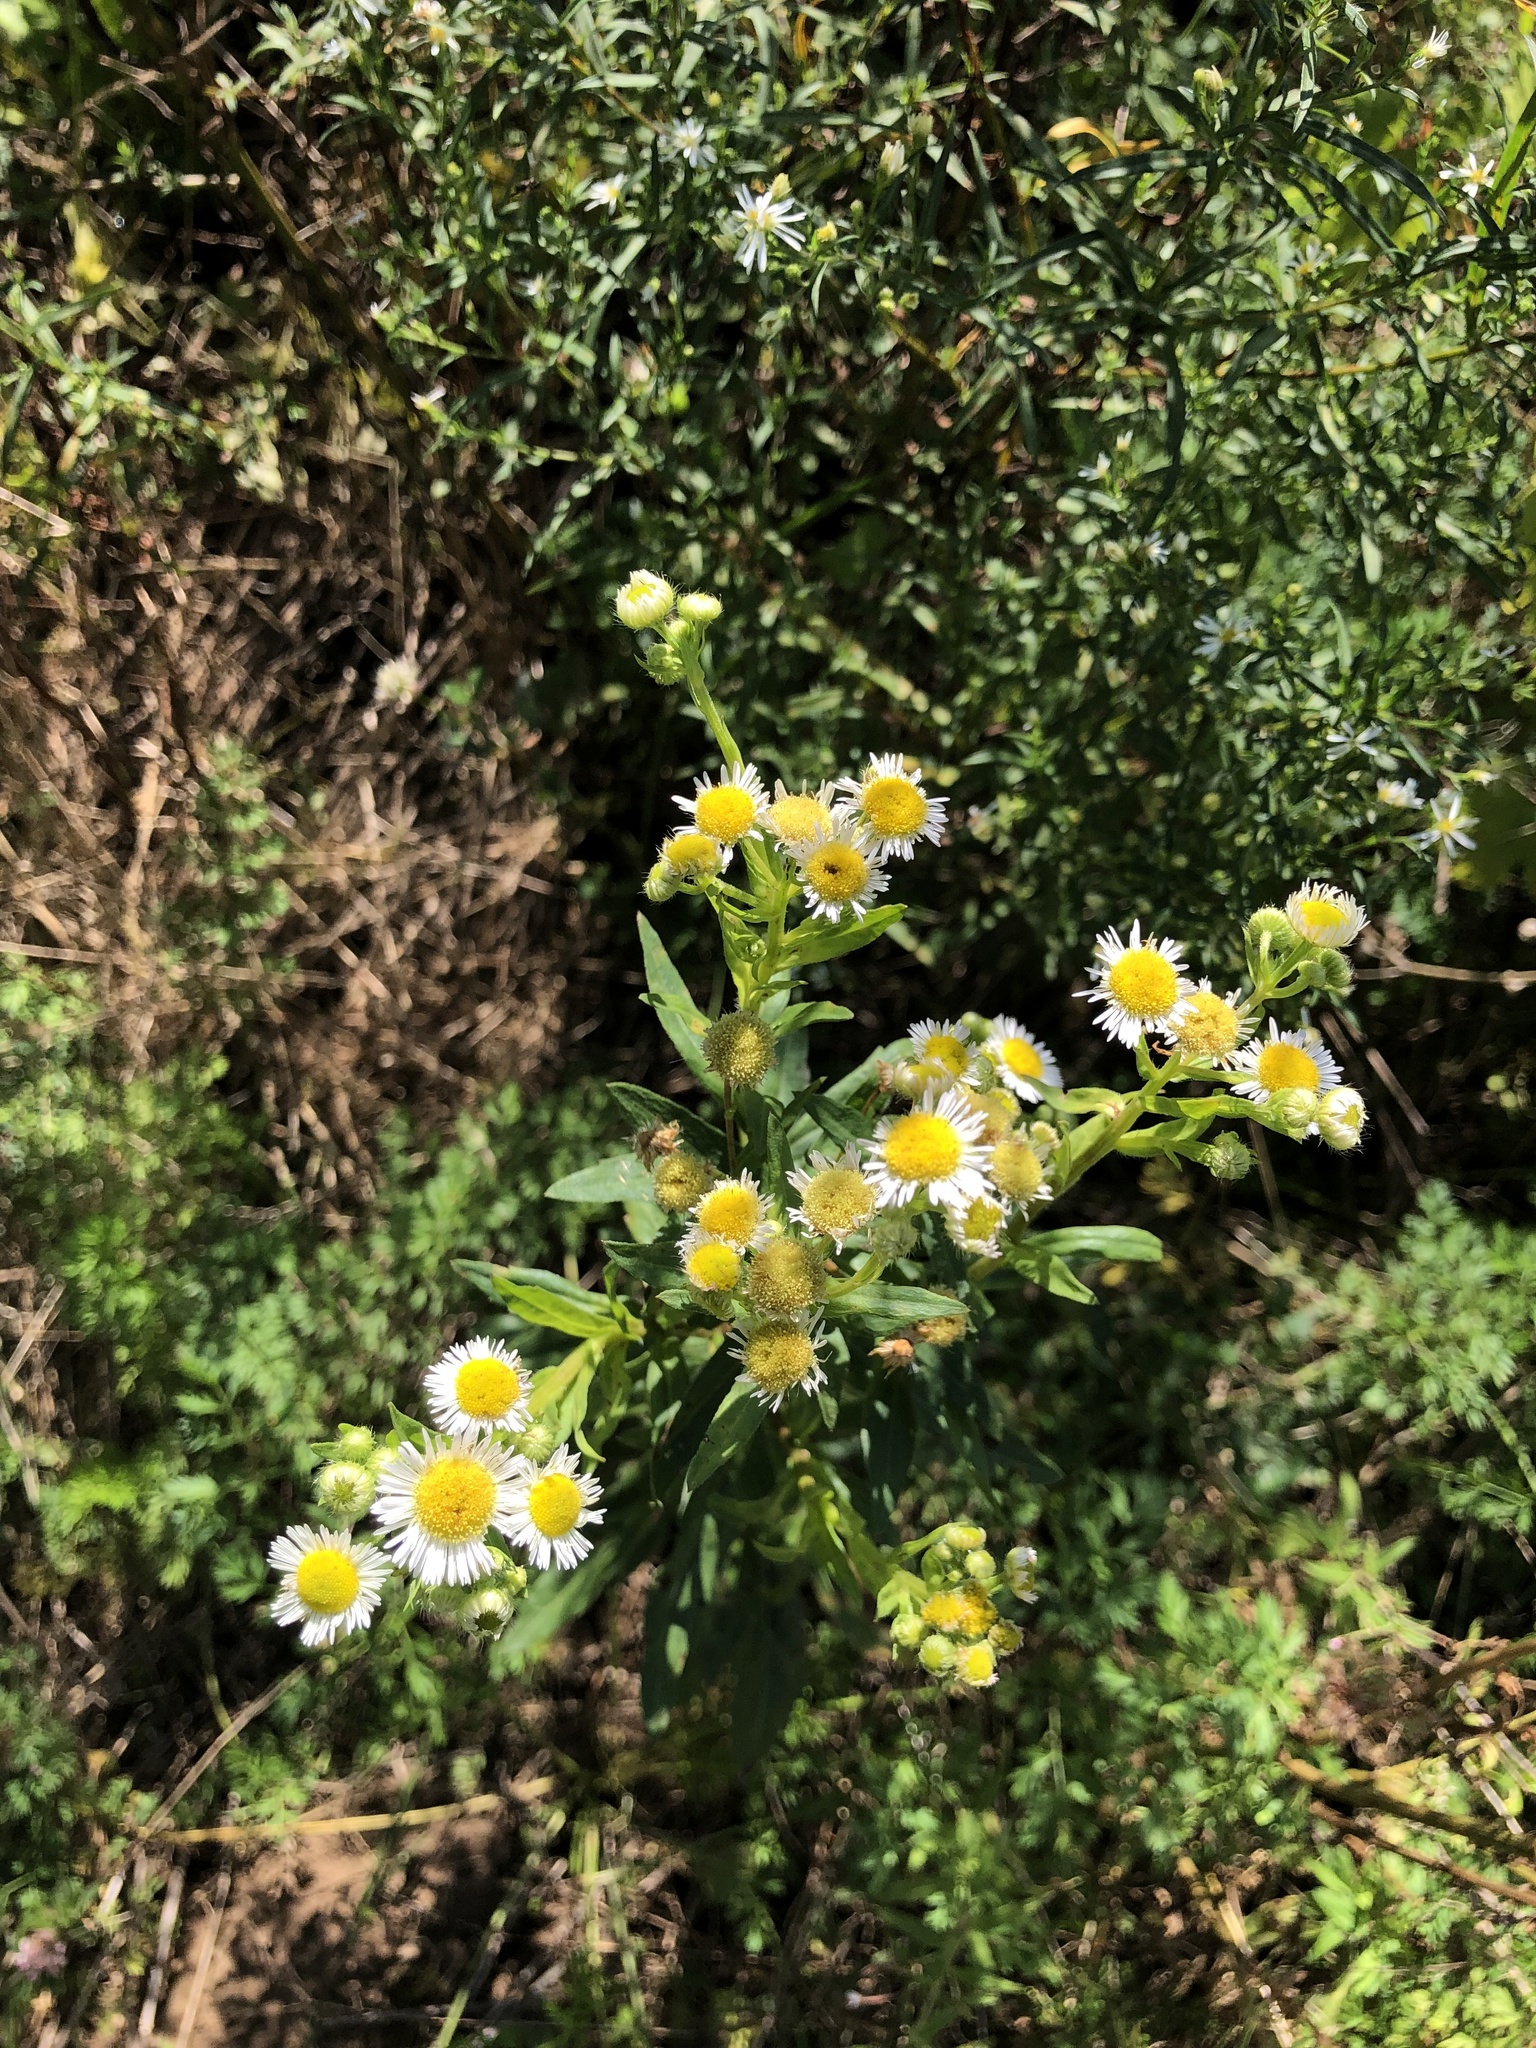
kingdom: Plantae
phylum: Tracheophyta
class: Magnoliopsida
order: Asterales
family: Asteraceae
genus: Erigeron
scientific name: Erigeron annuus
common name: Tall fleabane
